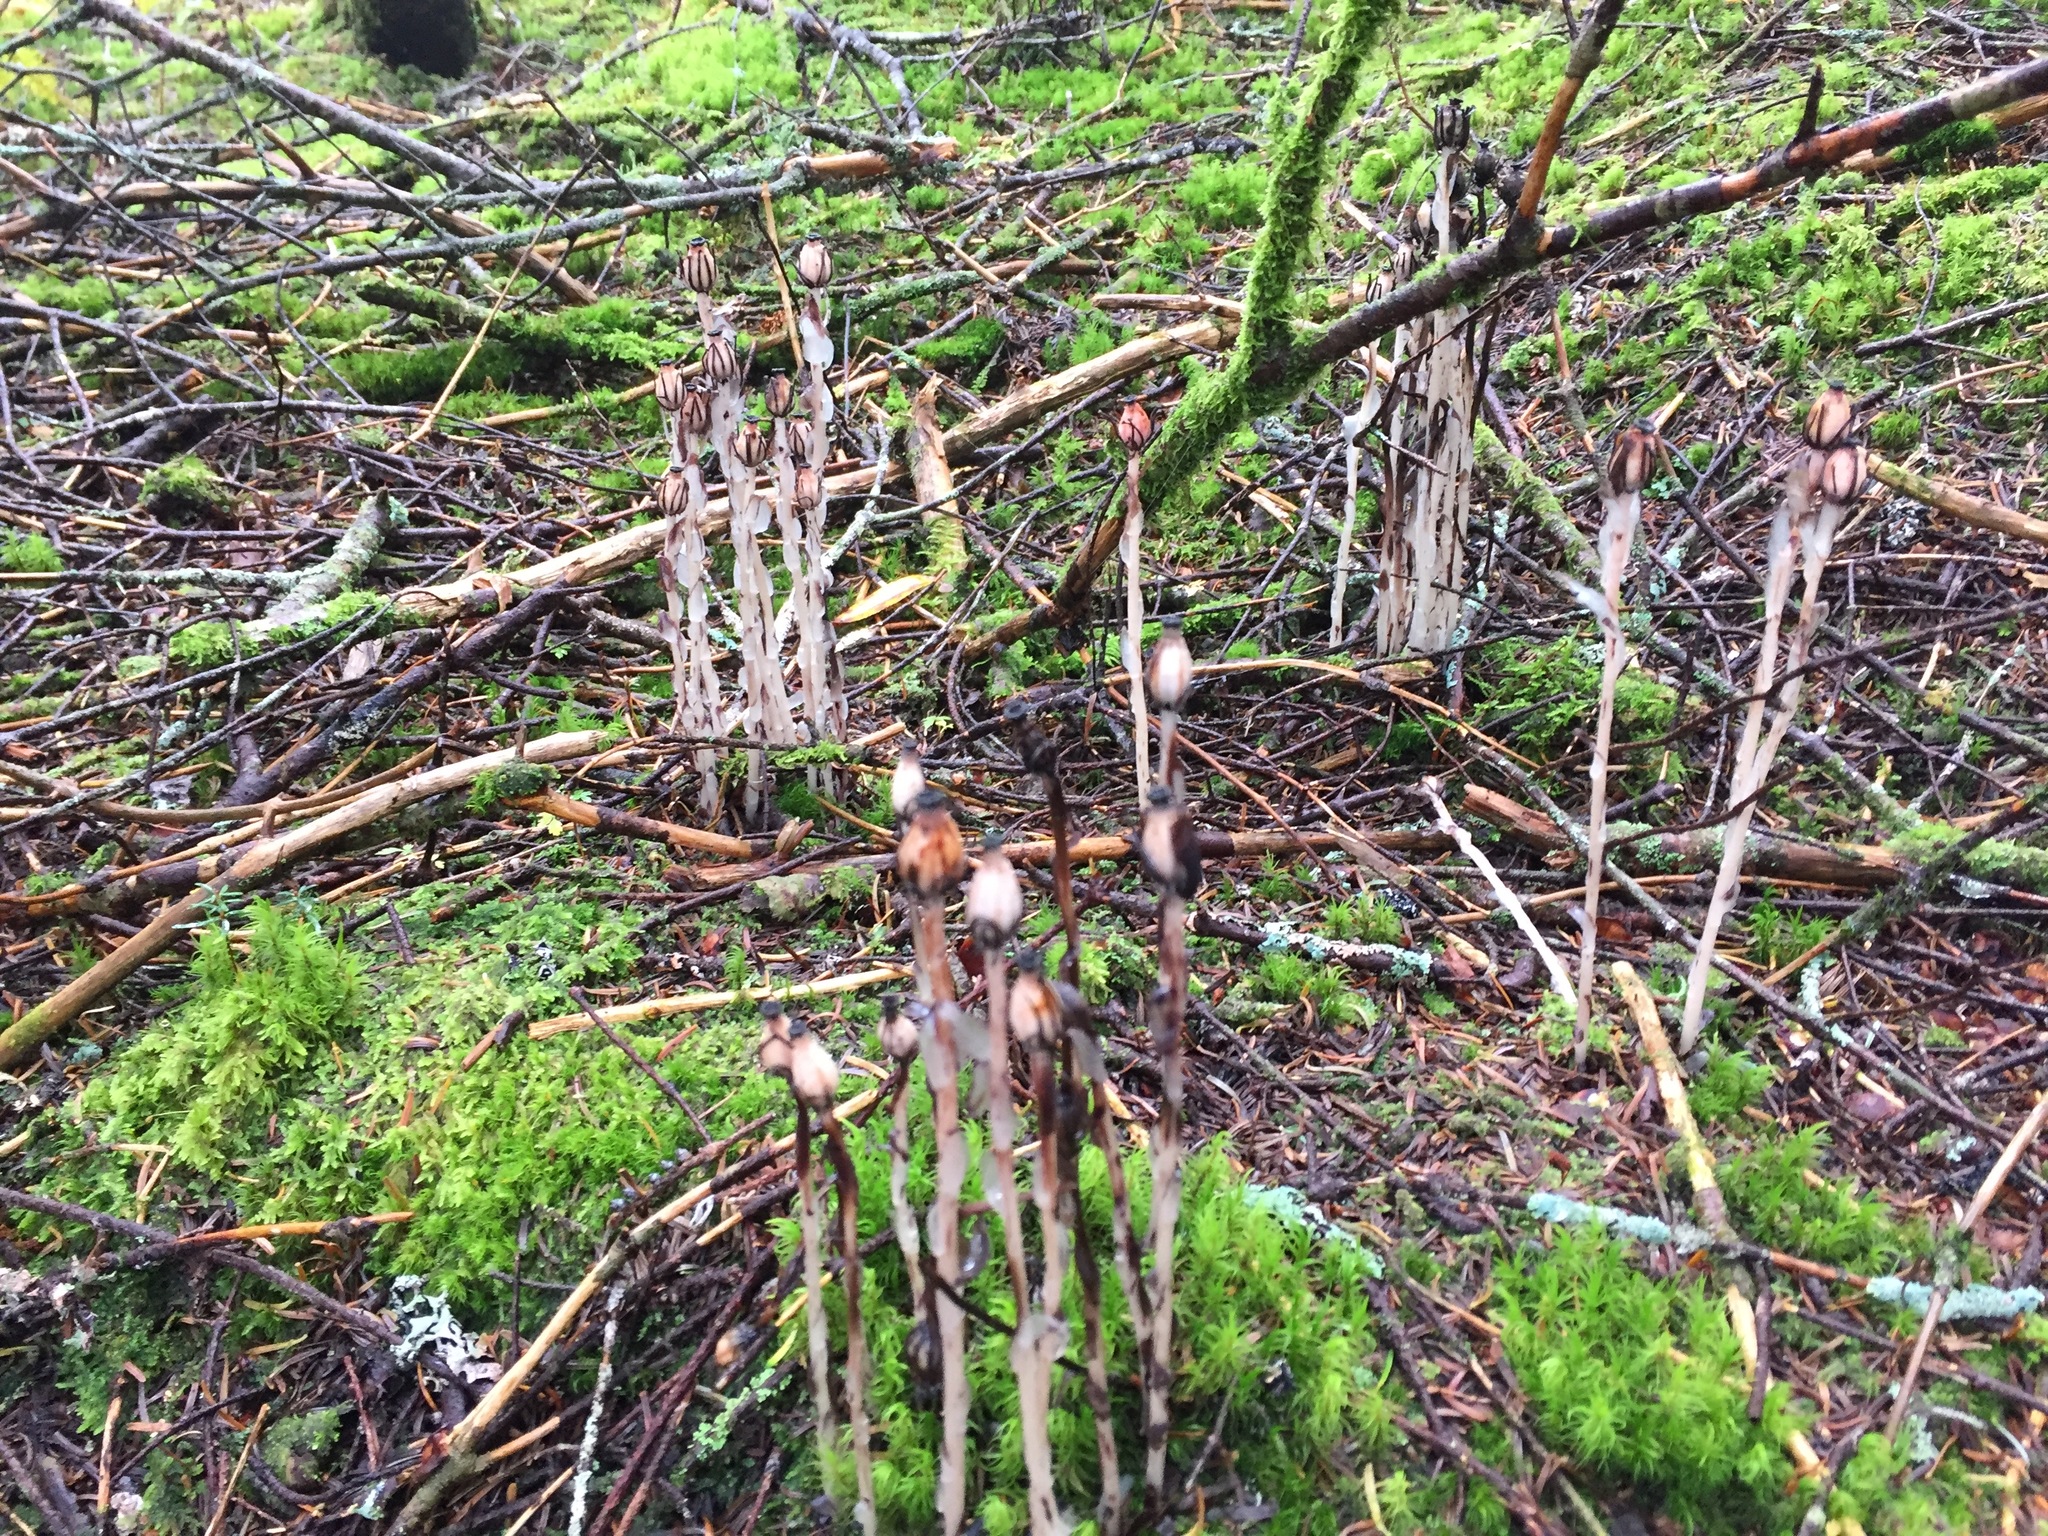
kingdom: Plantae
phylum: Tracheophyta
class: Magnoliopsida
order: Ericales
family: Ericaceae
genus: Monotropa
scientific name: Monotropa uniflora
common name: Convulsion root
